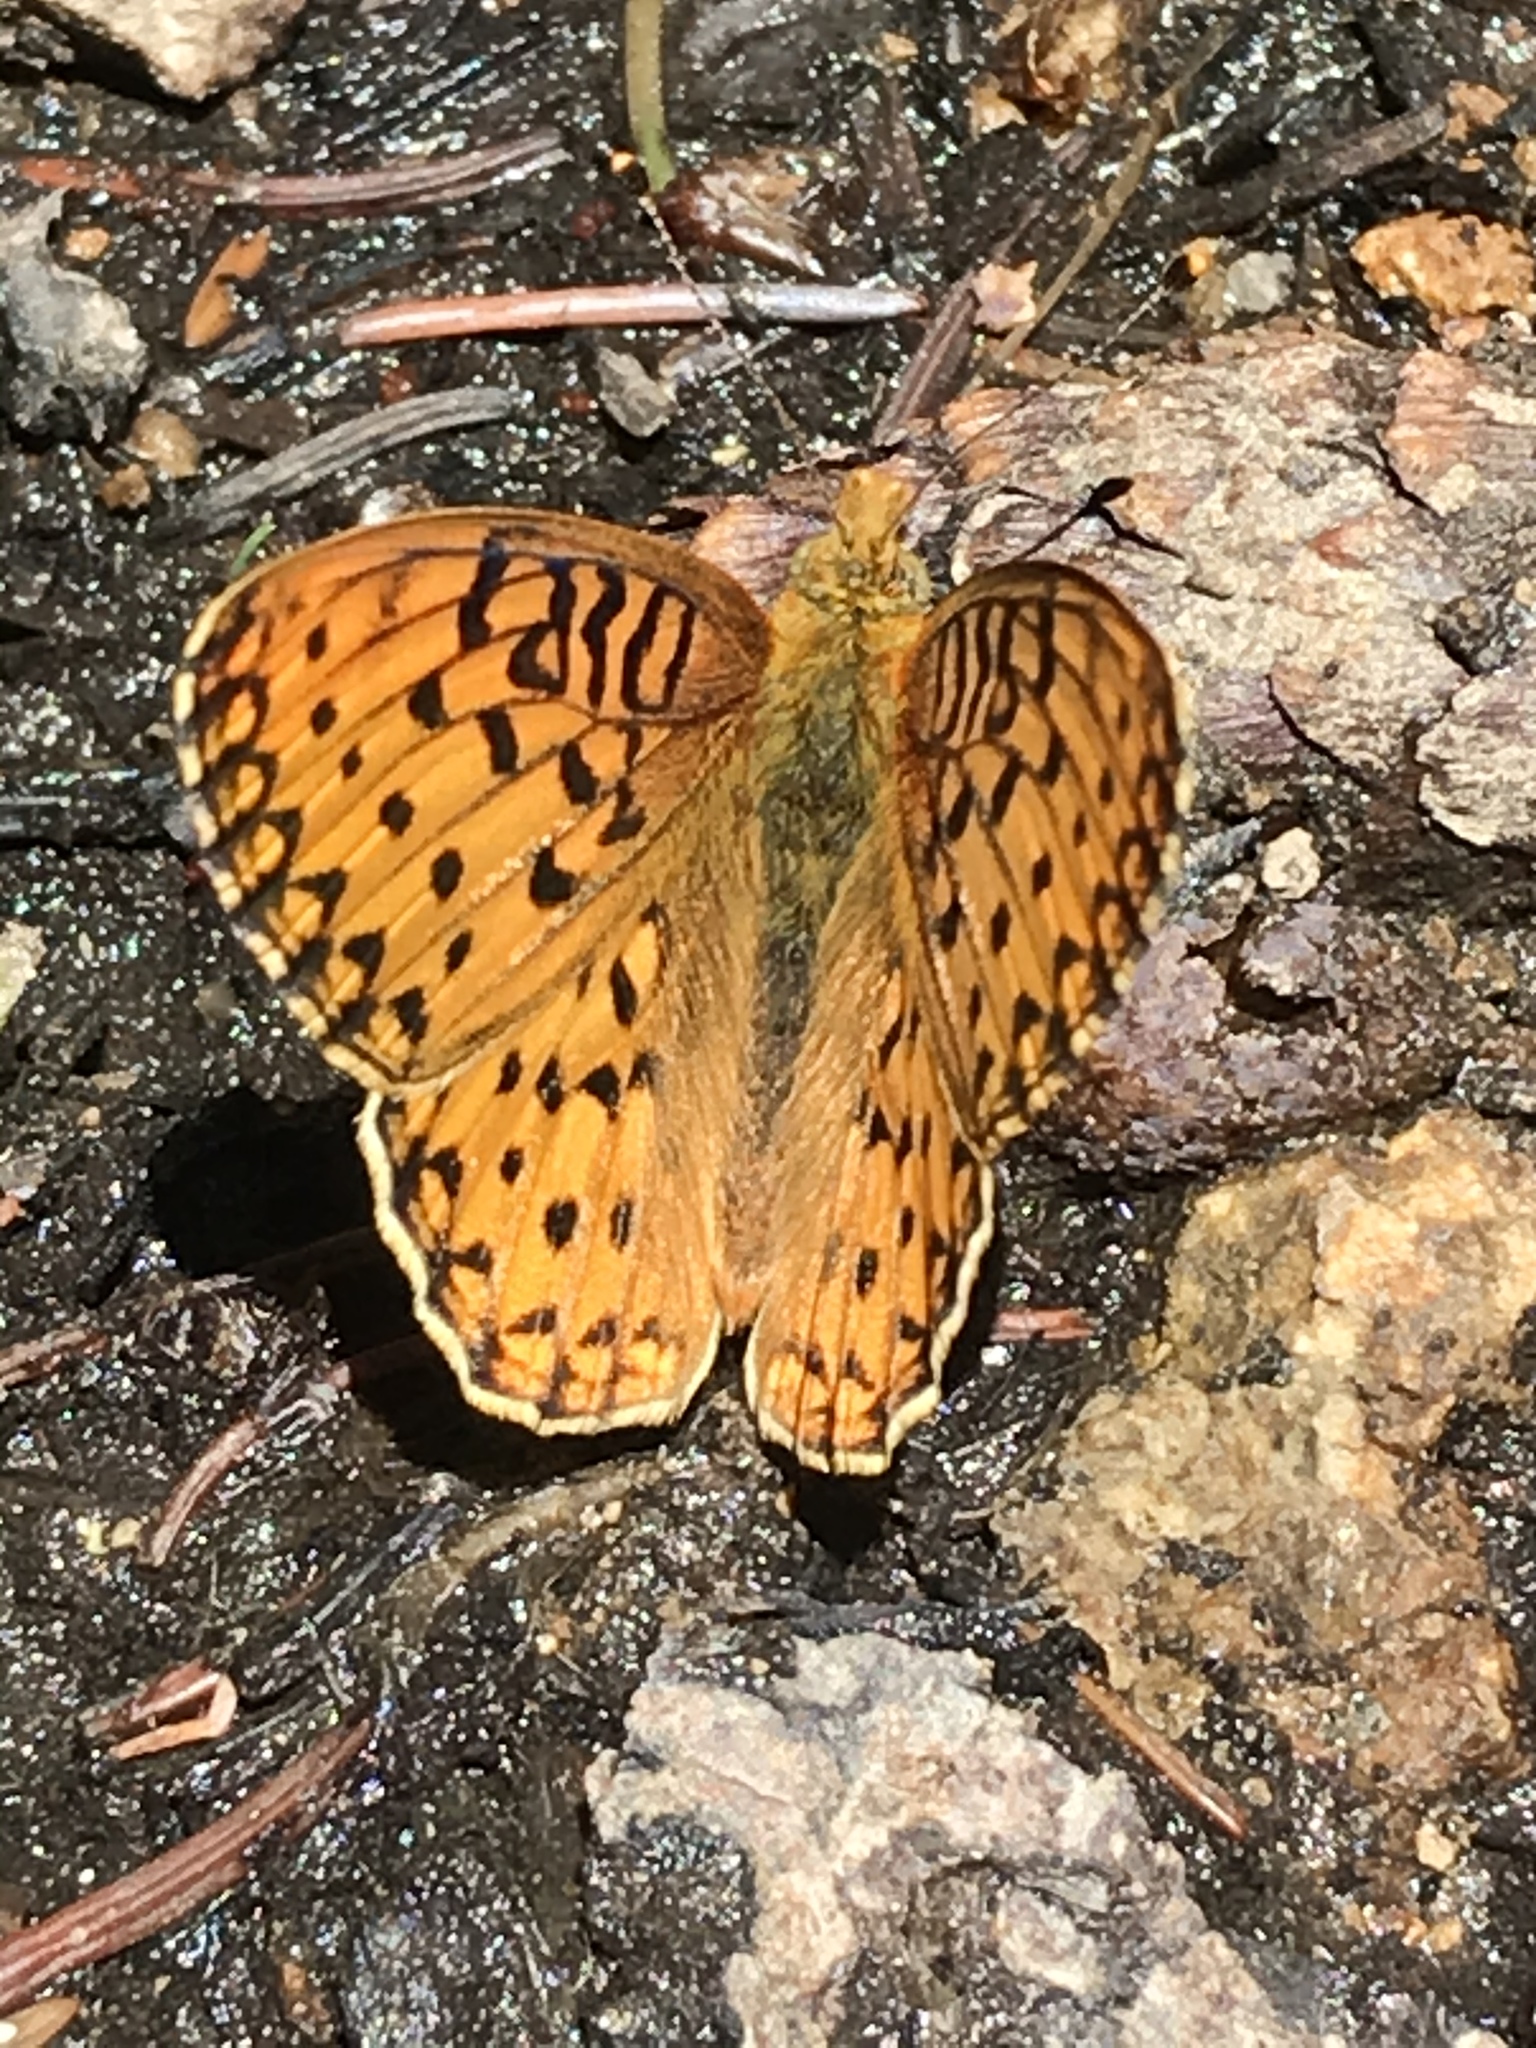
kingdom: Animalia
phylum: Arthropoda
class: Insecta
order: Lepidoptera
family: Nymphalidae
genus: Speyeria
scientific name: Speyeria mormonia
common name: Mormon fritillary
